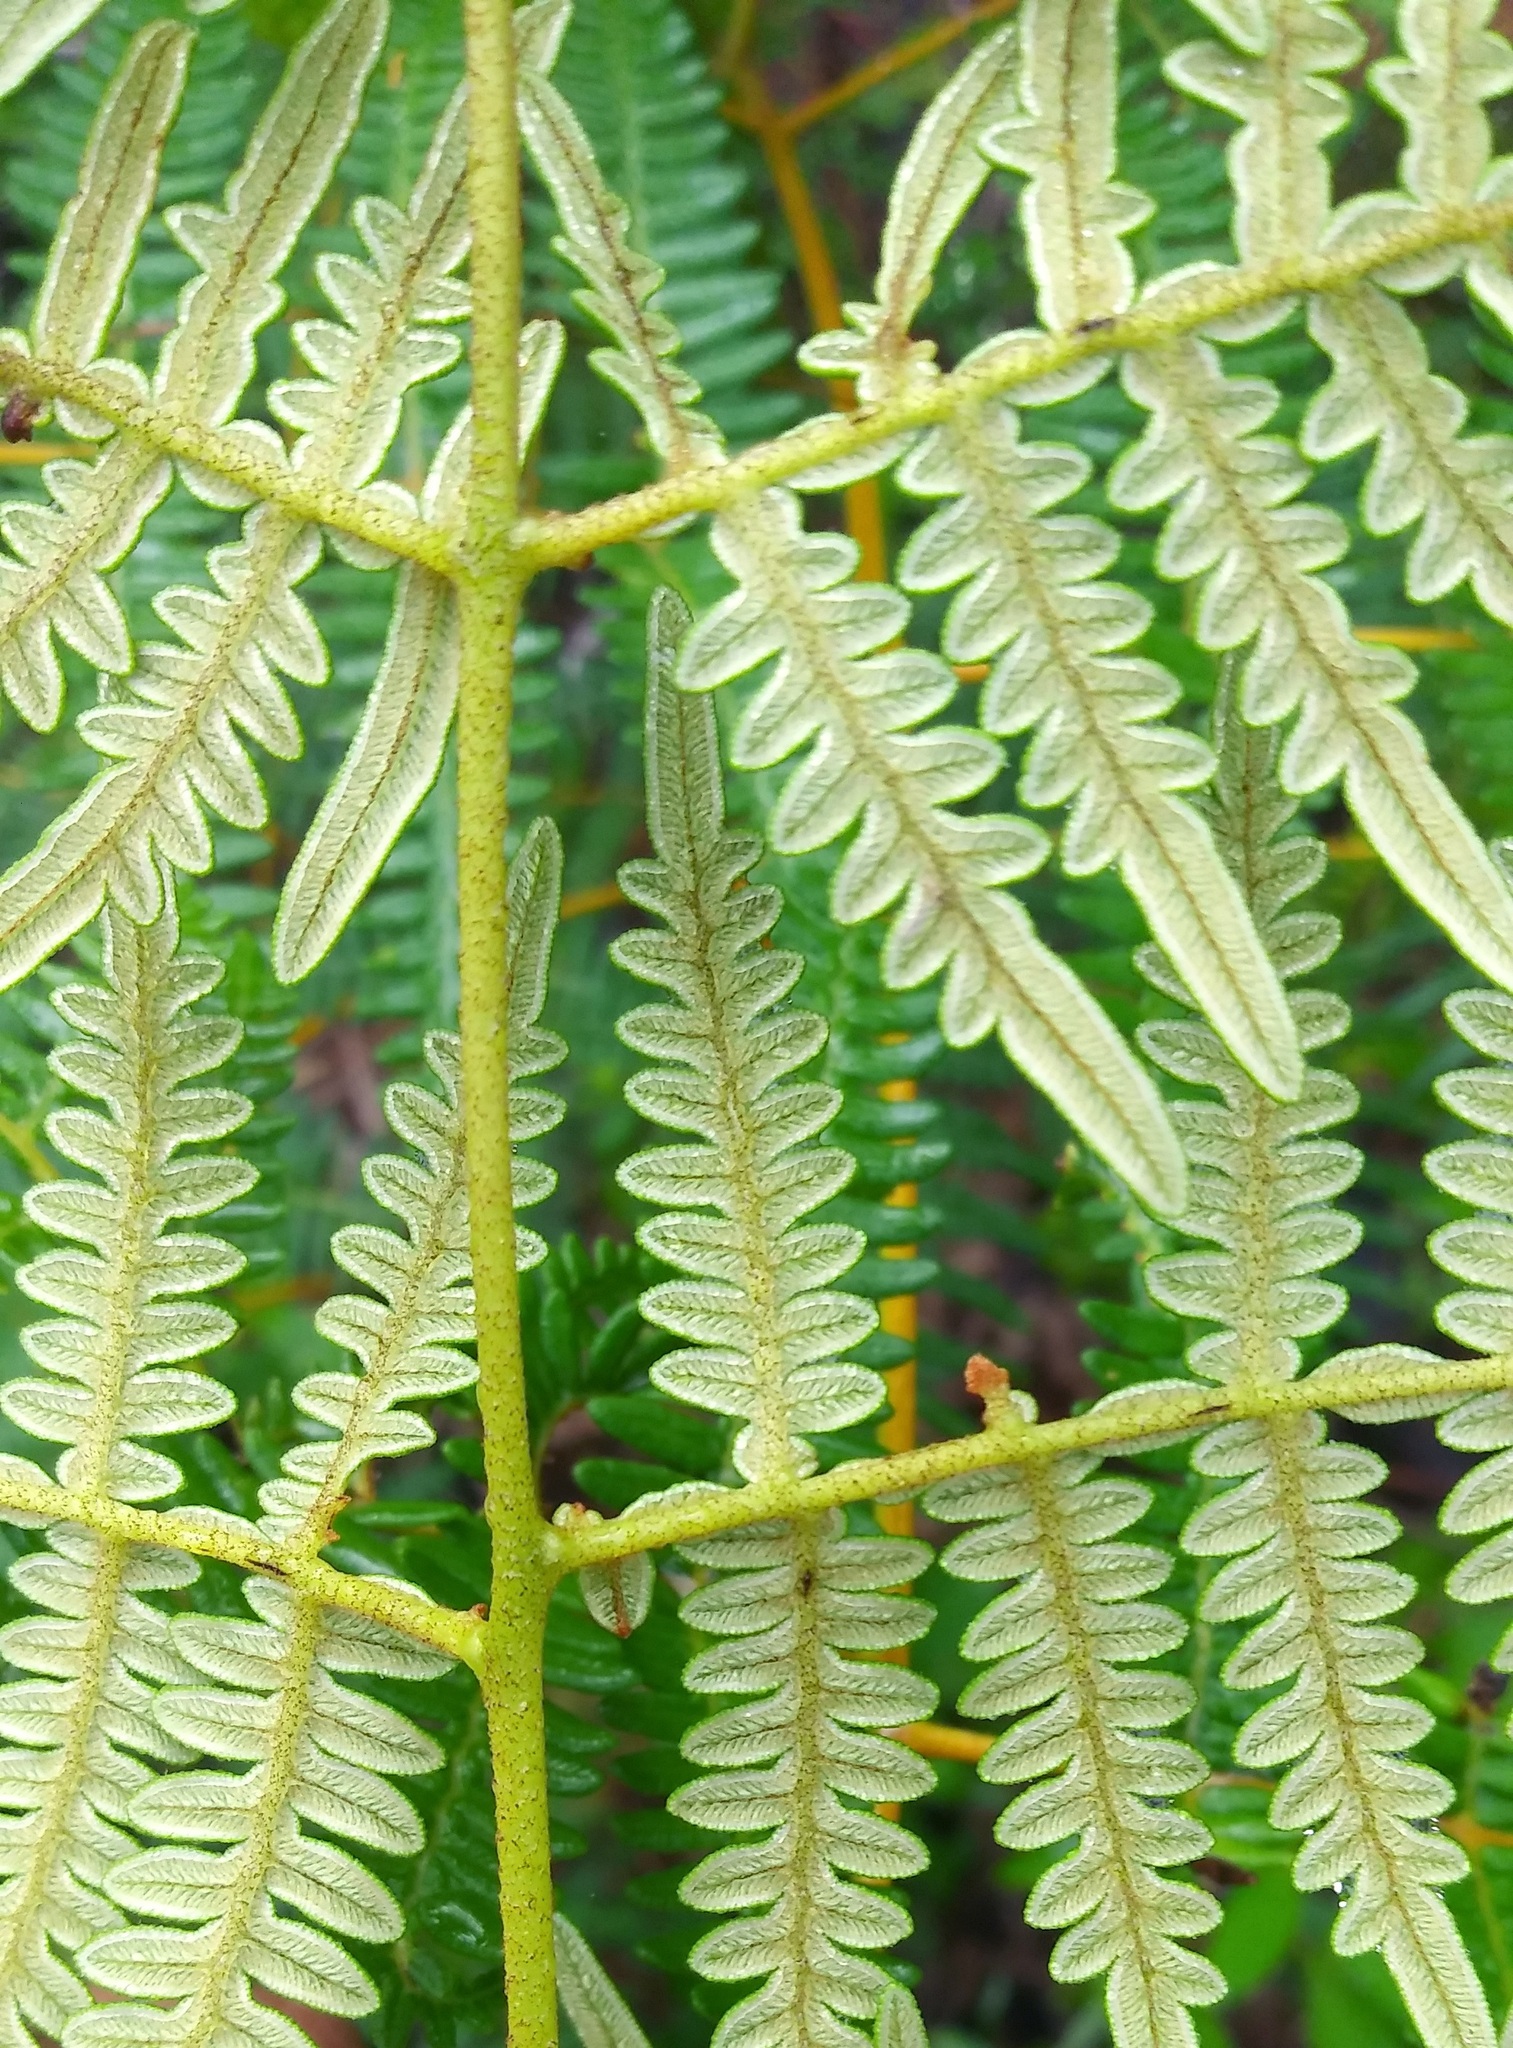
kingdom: Plantae
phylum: Tracheophyta
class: Polypodiopsida
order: Polypodiales
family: Dennstaedtiaceae
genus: Pteridium
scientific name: Pteridium esculentum
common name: Bracken fern
